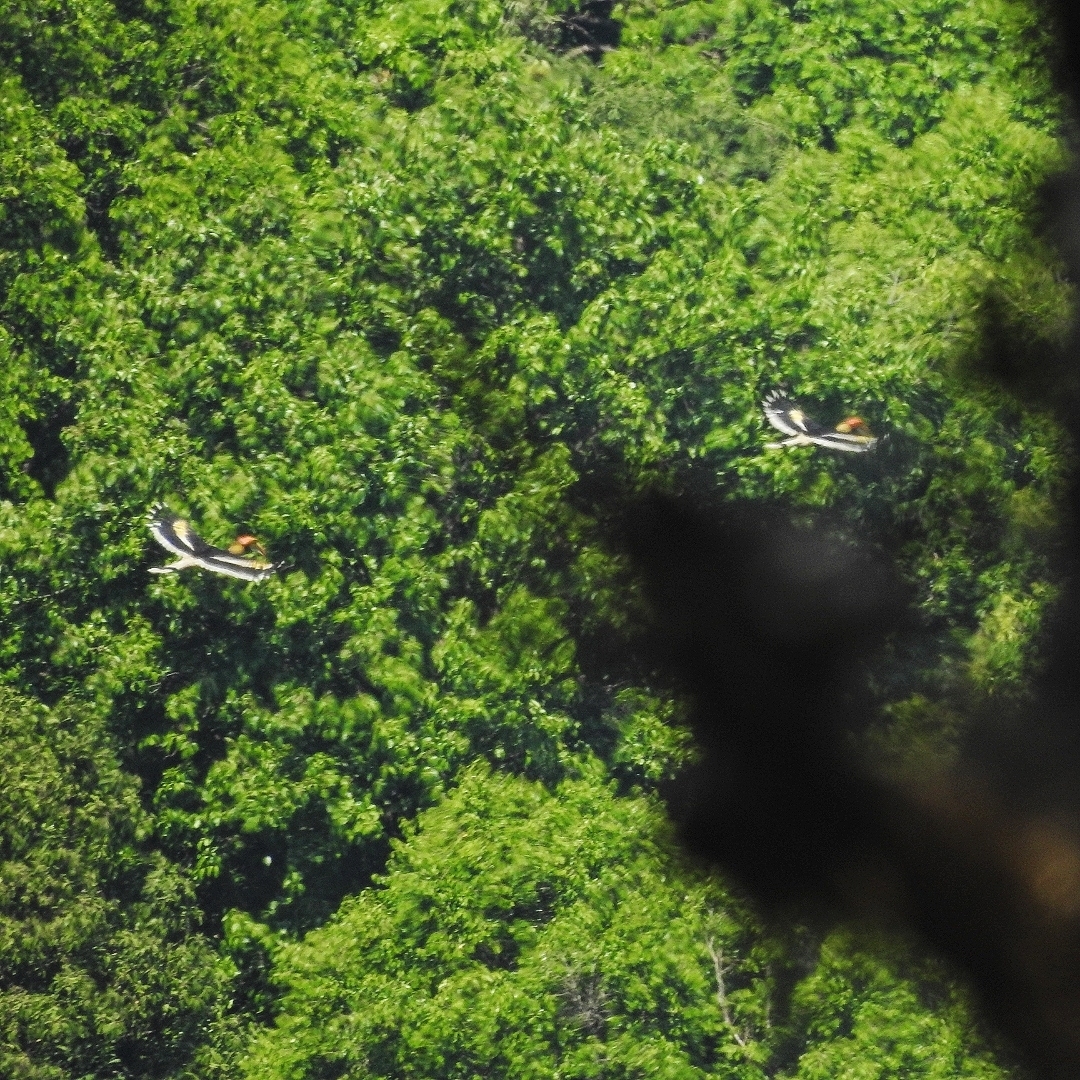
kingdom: Animalia
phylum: Chordata
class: Aves
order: Bucerotiformes
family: Bucerotidae
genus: Buceros
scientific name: Buceros bicornis
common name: Great hornbill
